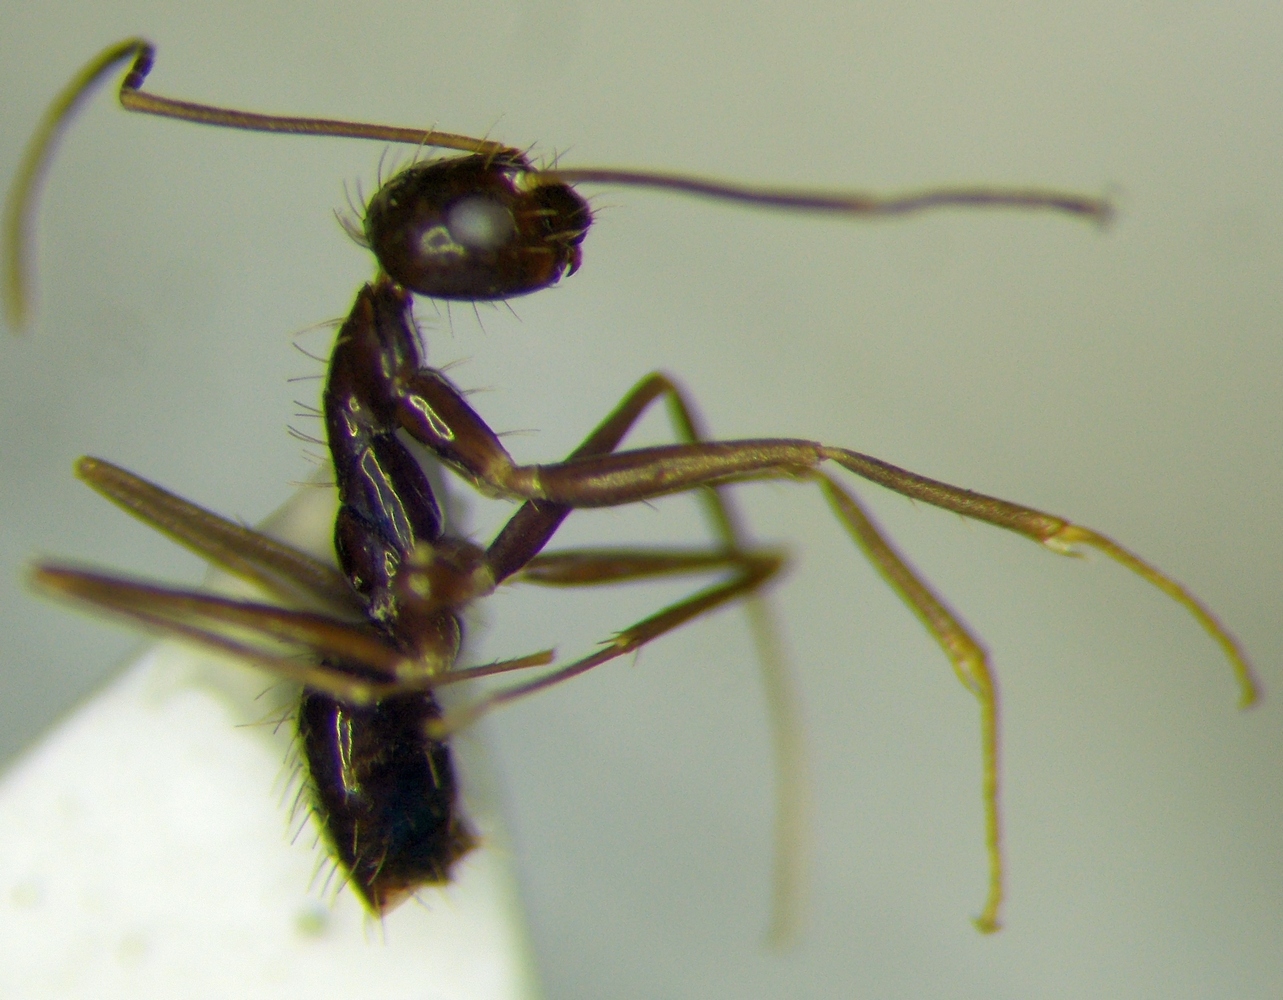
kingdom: Animalia
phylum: Arthropoda
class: Insecta
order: Hymenoptera
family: Formicidae
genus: Paratrechina
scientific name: Paratrechina longicornis
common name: Longhorned crazy ant
